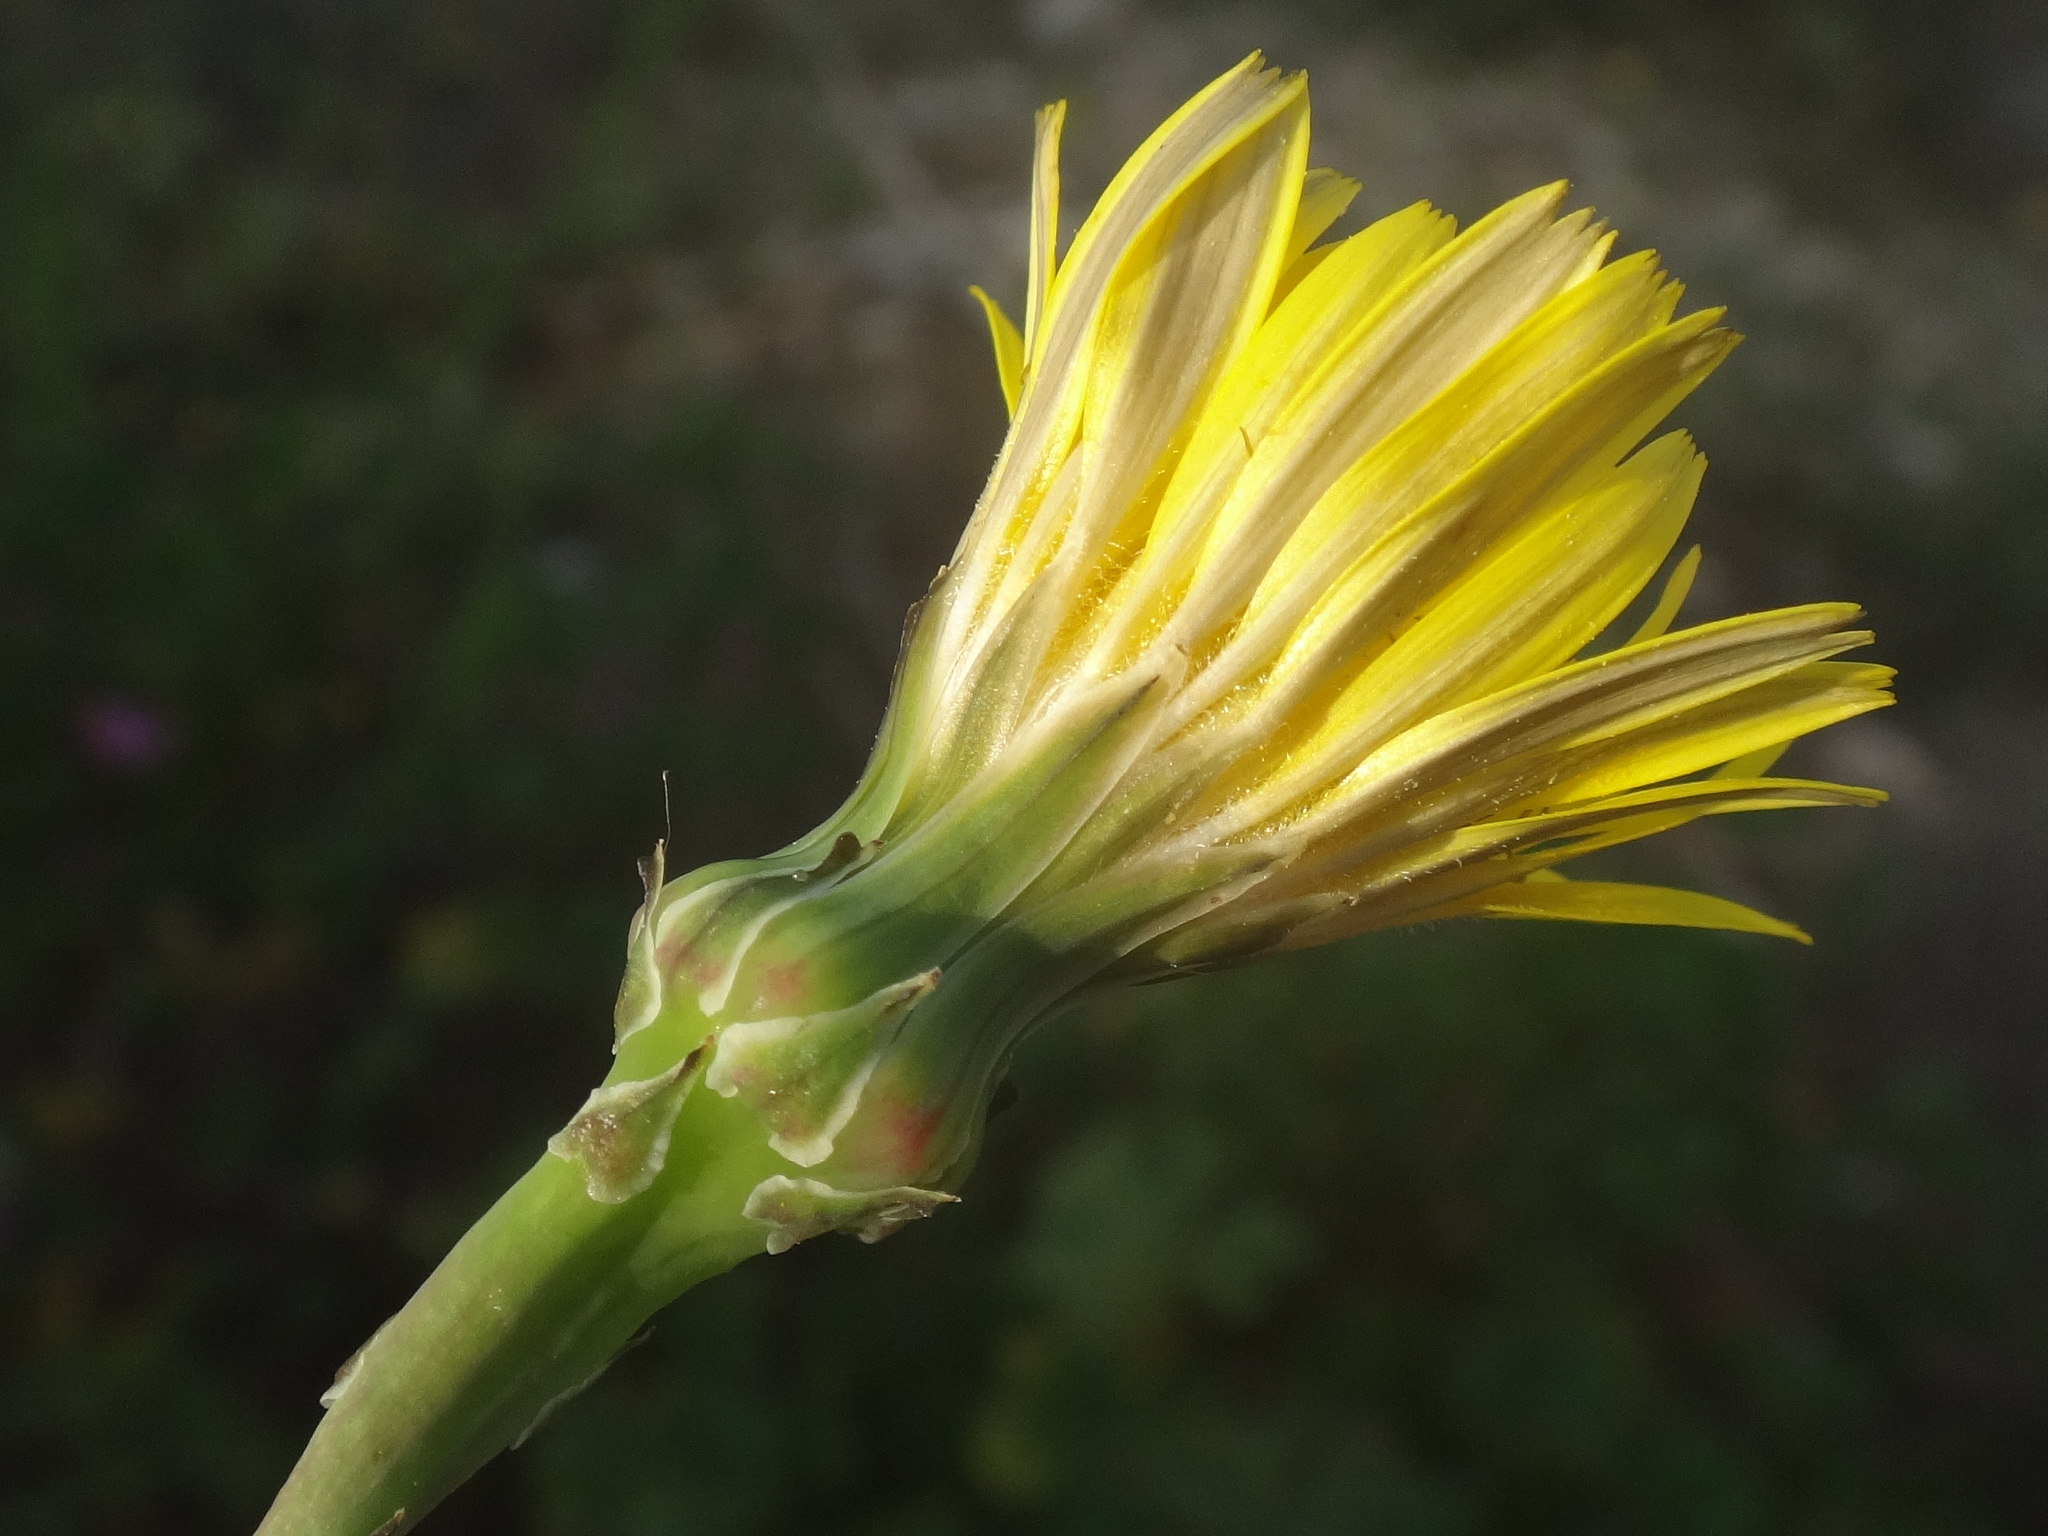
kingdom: Plantae
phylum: Tracheophyta
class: Magnoliopsida
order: Asterales
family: Asteraceae
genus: Reichardia
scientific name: Reichardia picroides
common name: Common brighteyes
